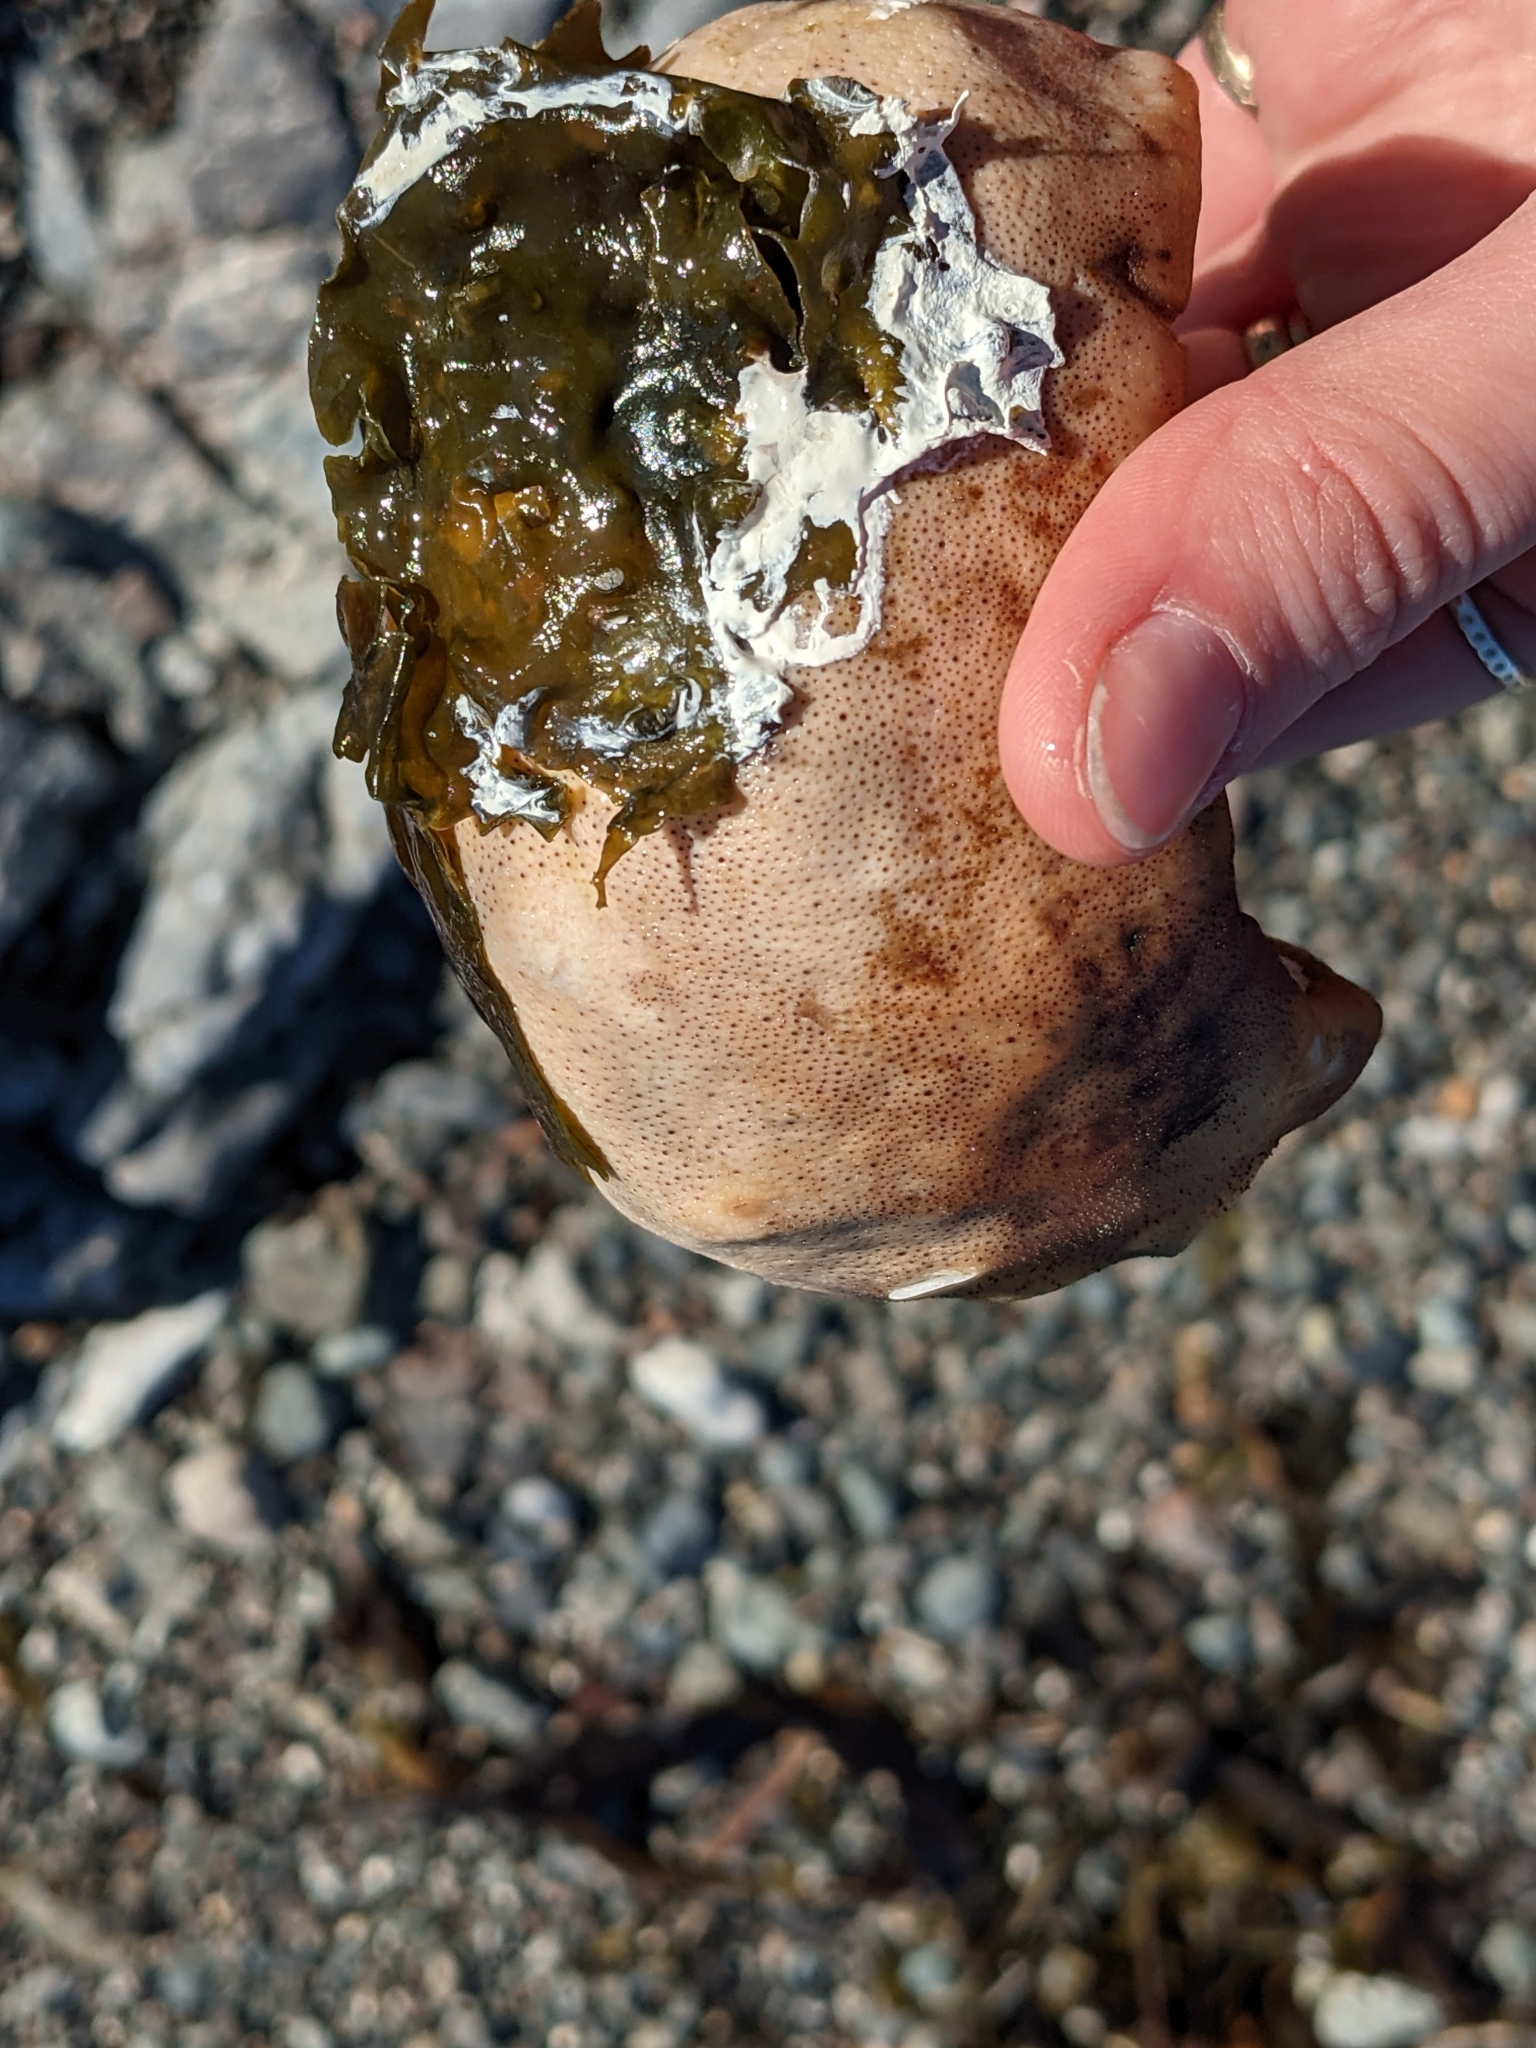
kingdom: Animalia
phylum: Mollusca
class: Polyplacophora
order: Chitonida
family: Acanthochitonidae
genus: Cryptochiton
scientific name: Cryptochiton stelleri
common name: Giant pacific chiton
